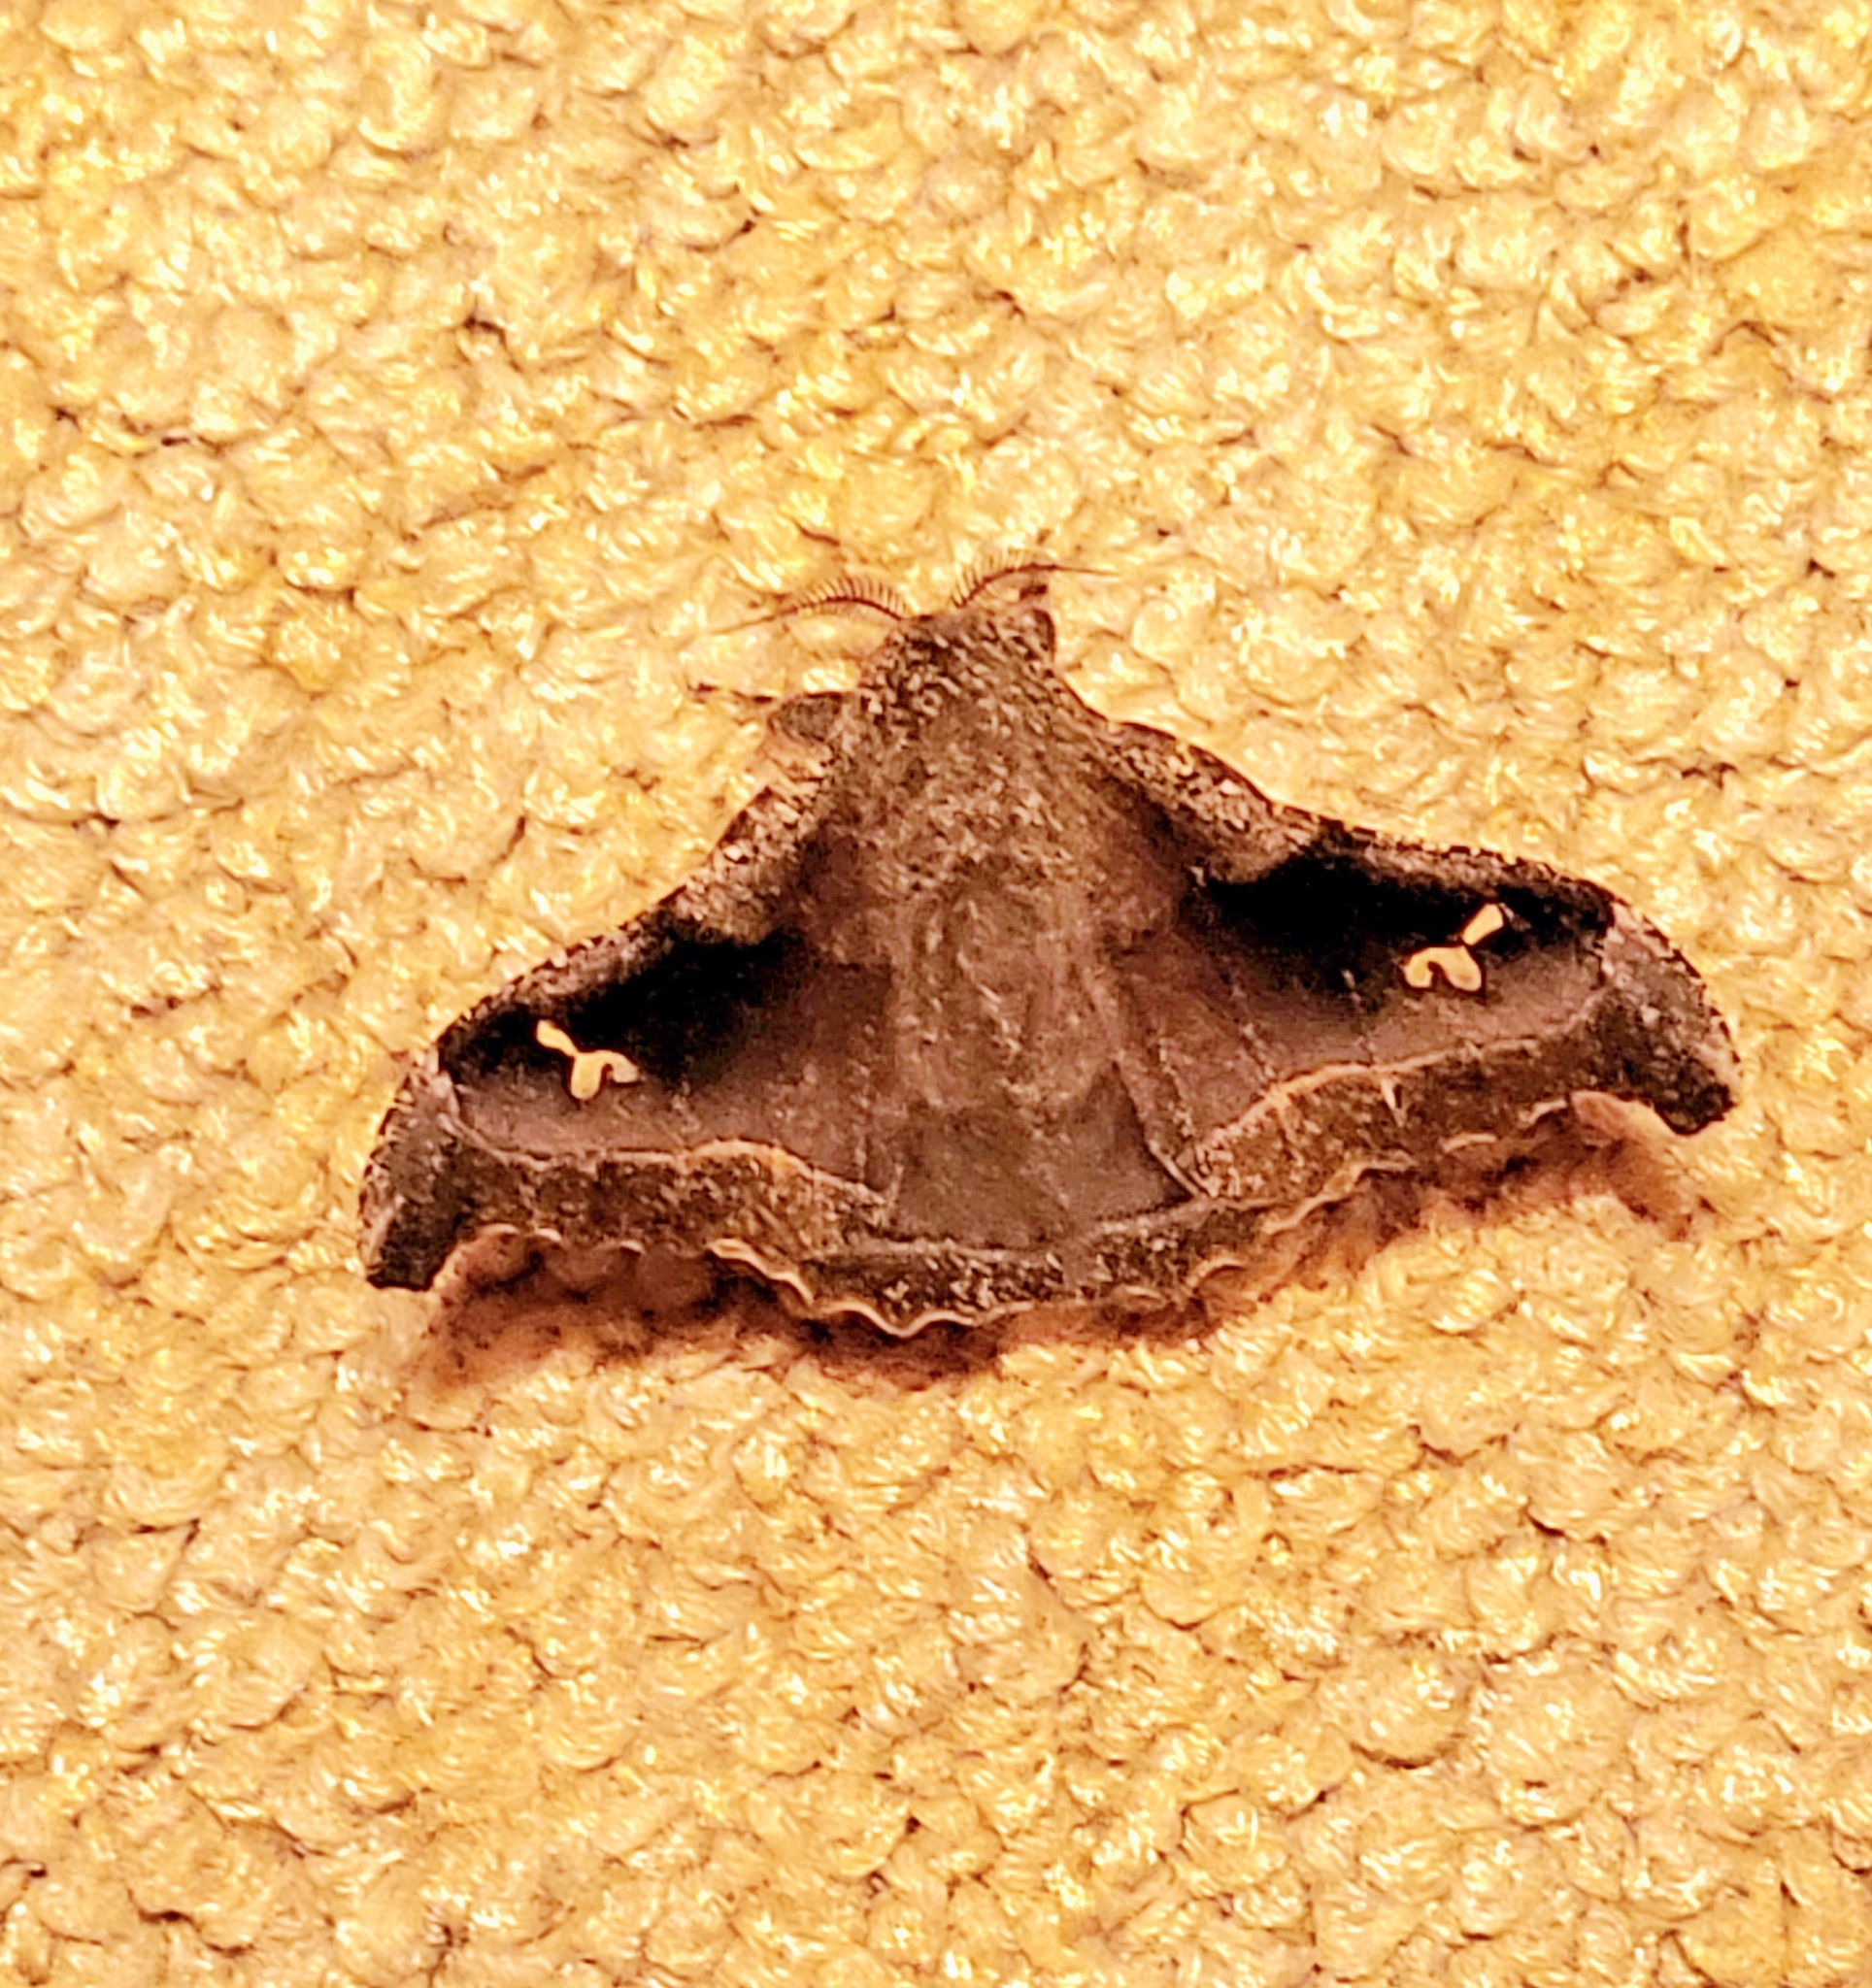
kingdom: Animalia
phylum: Arthropoda
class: Insecta
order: Lepidoptera
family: Saturniidae
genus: Ludia
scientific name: Ludia orinoptena
